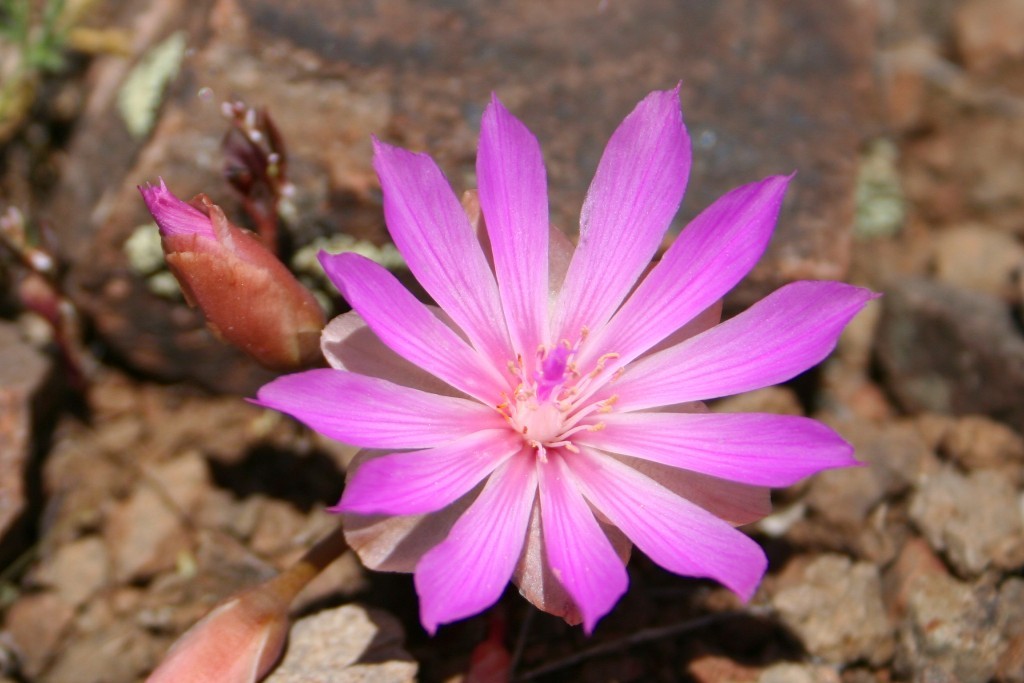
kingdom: Plantae
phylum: Tracheophyta
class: Magnoliopsida
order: Caryophyllales
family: Montiaceae
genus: Lewisia
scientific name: Lewisia rediviva
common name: Bitter-root
